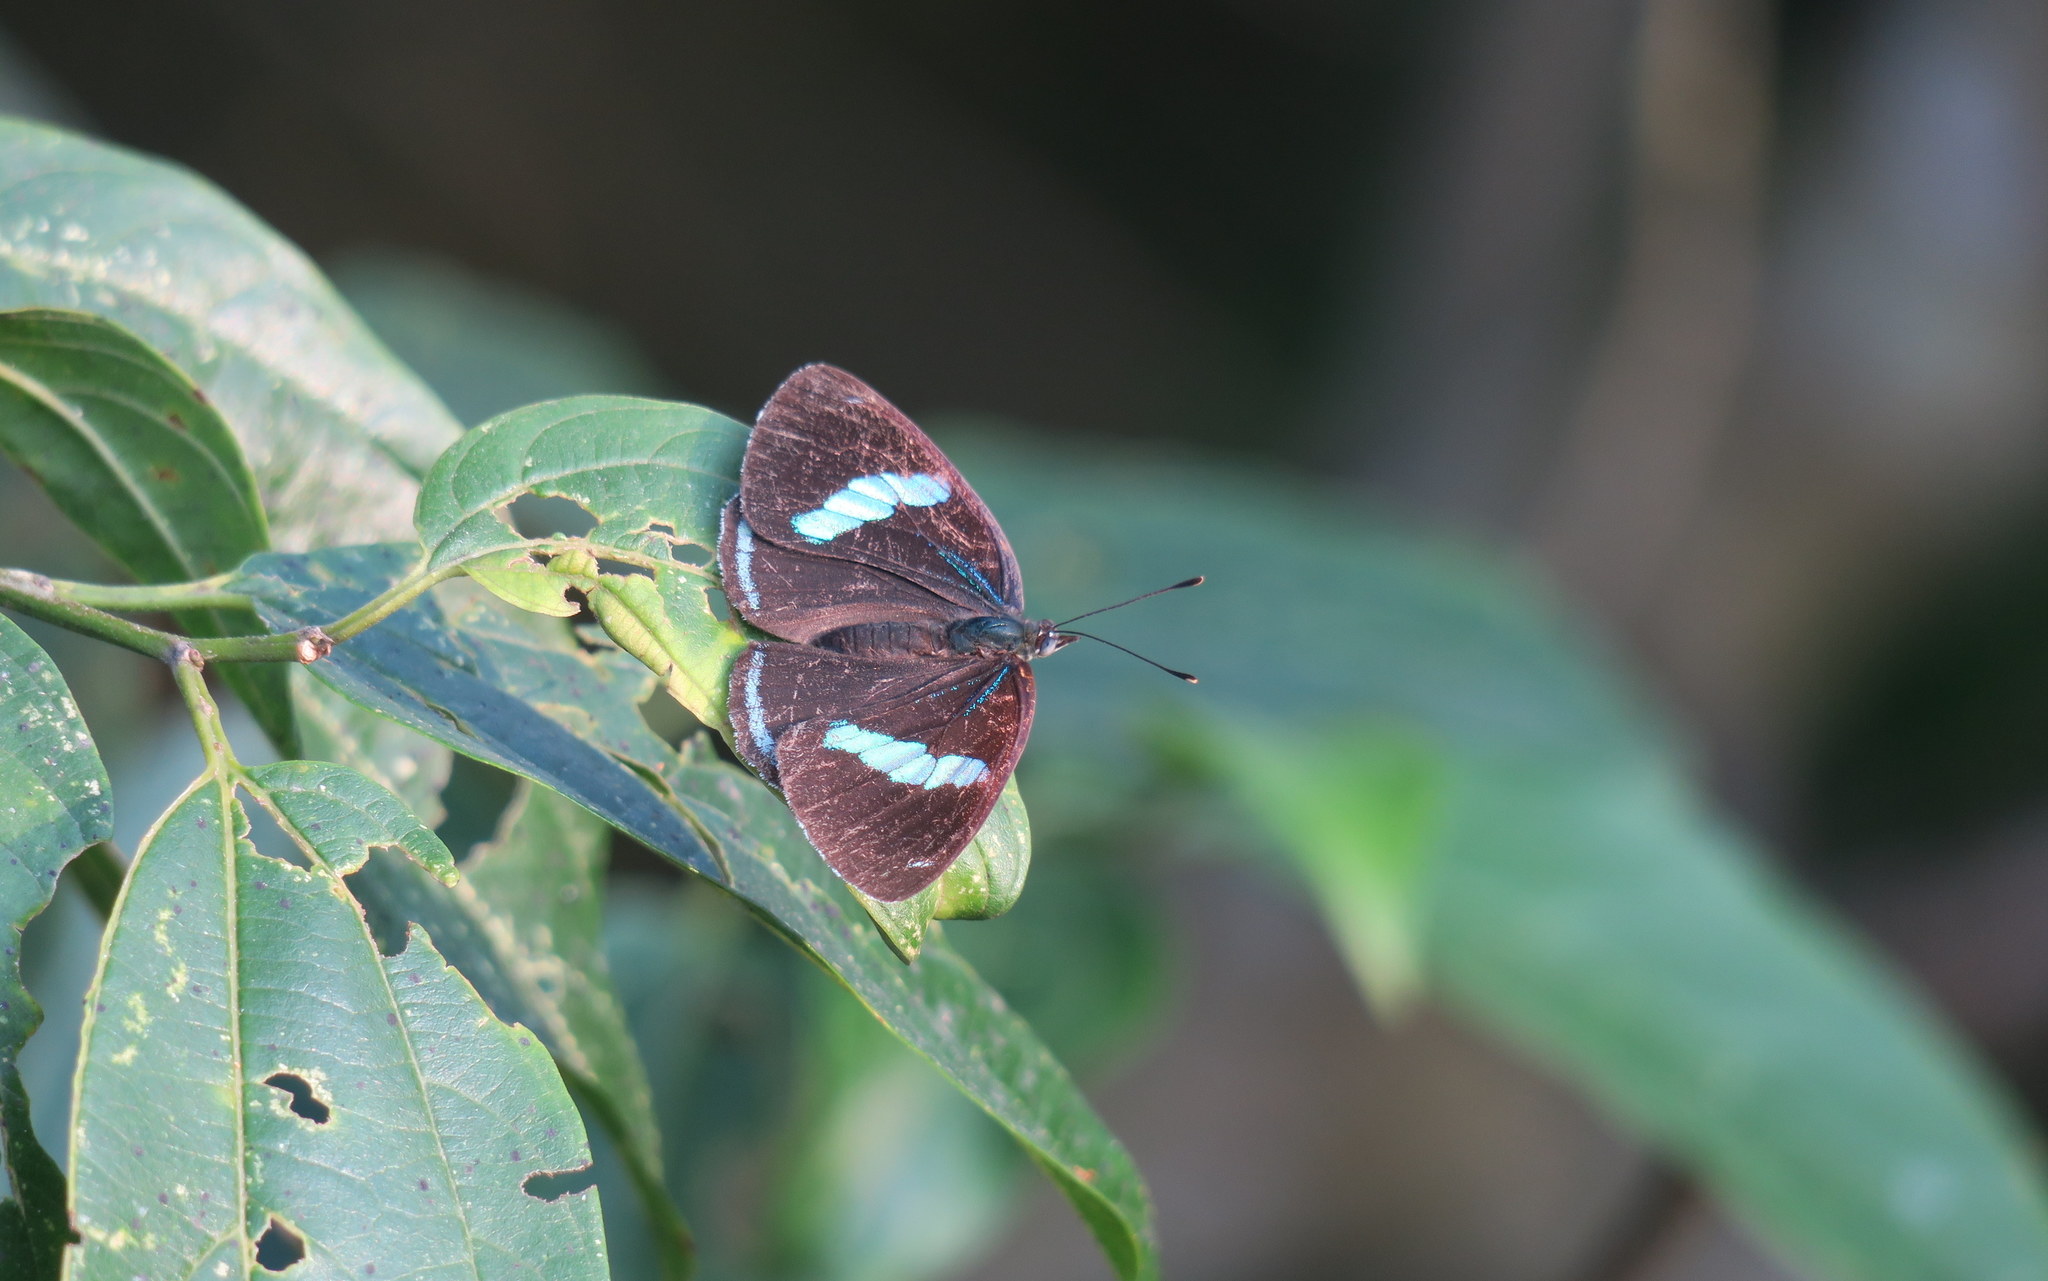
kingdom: Animalia
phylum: Arthropoda
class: Insecta
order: Lepidoptera
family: Nymphalidae
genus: Diaethria
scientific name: Diaethria clymena
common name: Widespread eighty-eight
